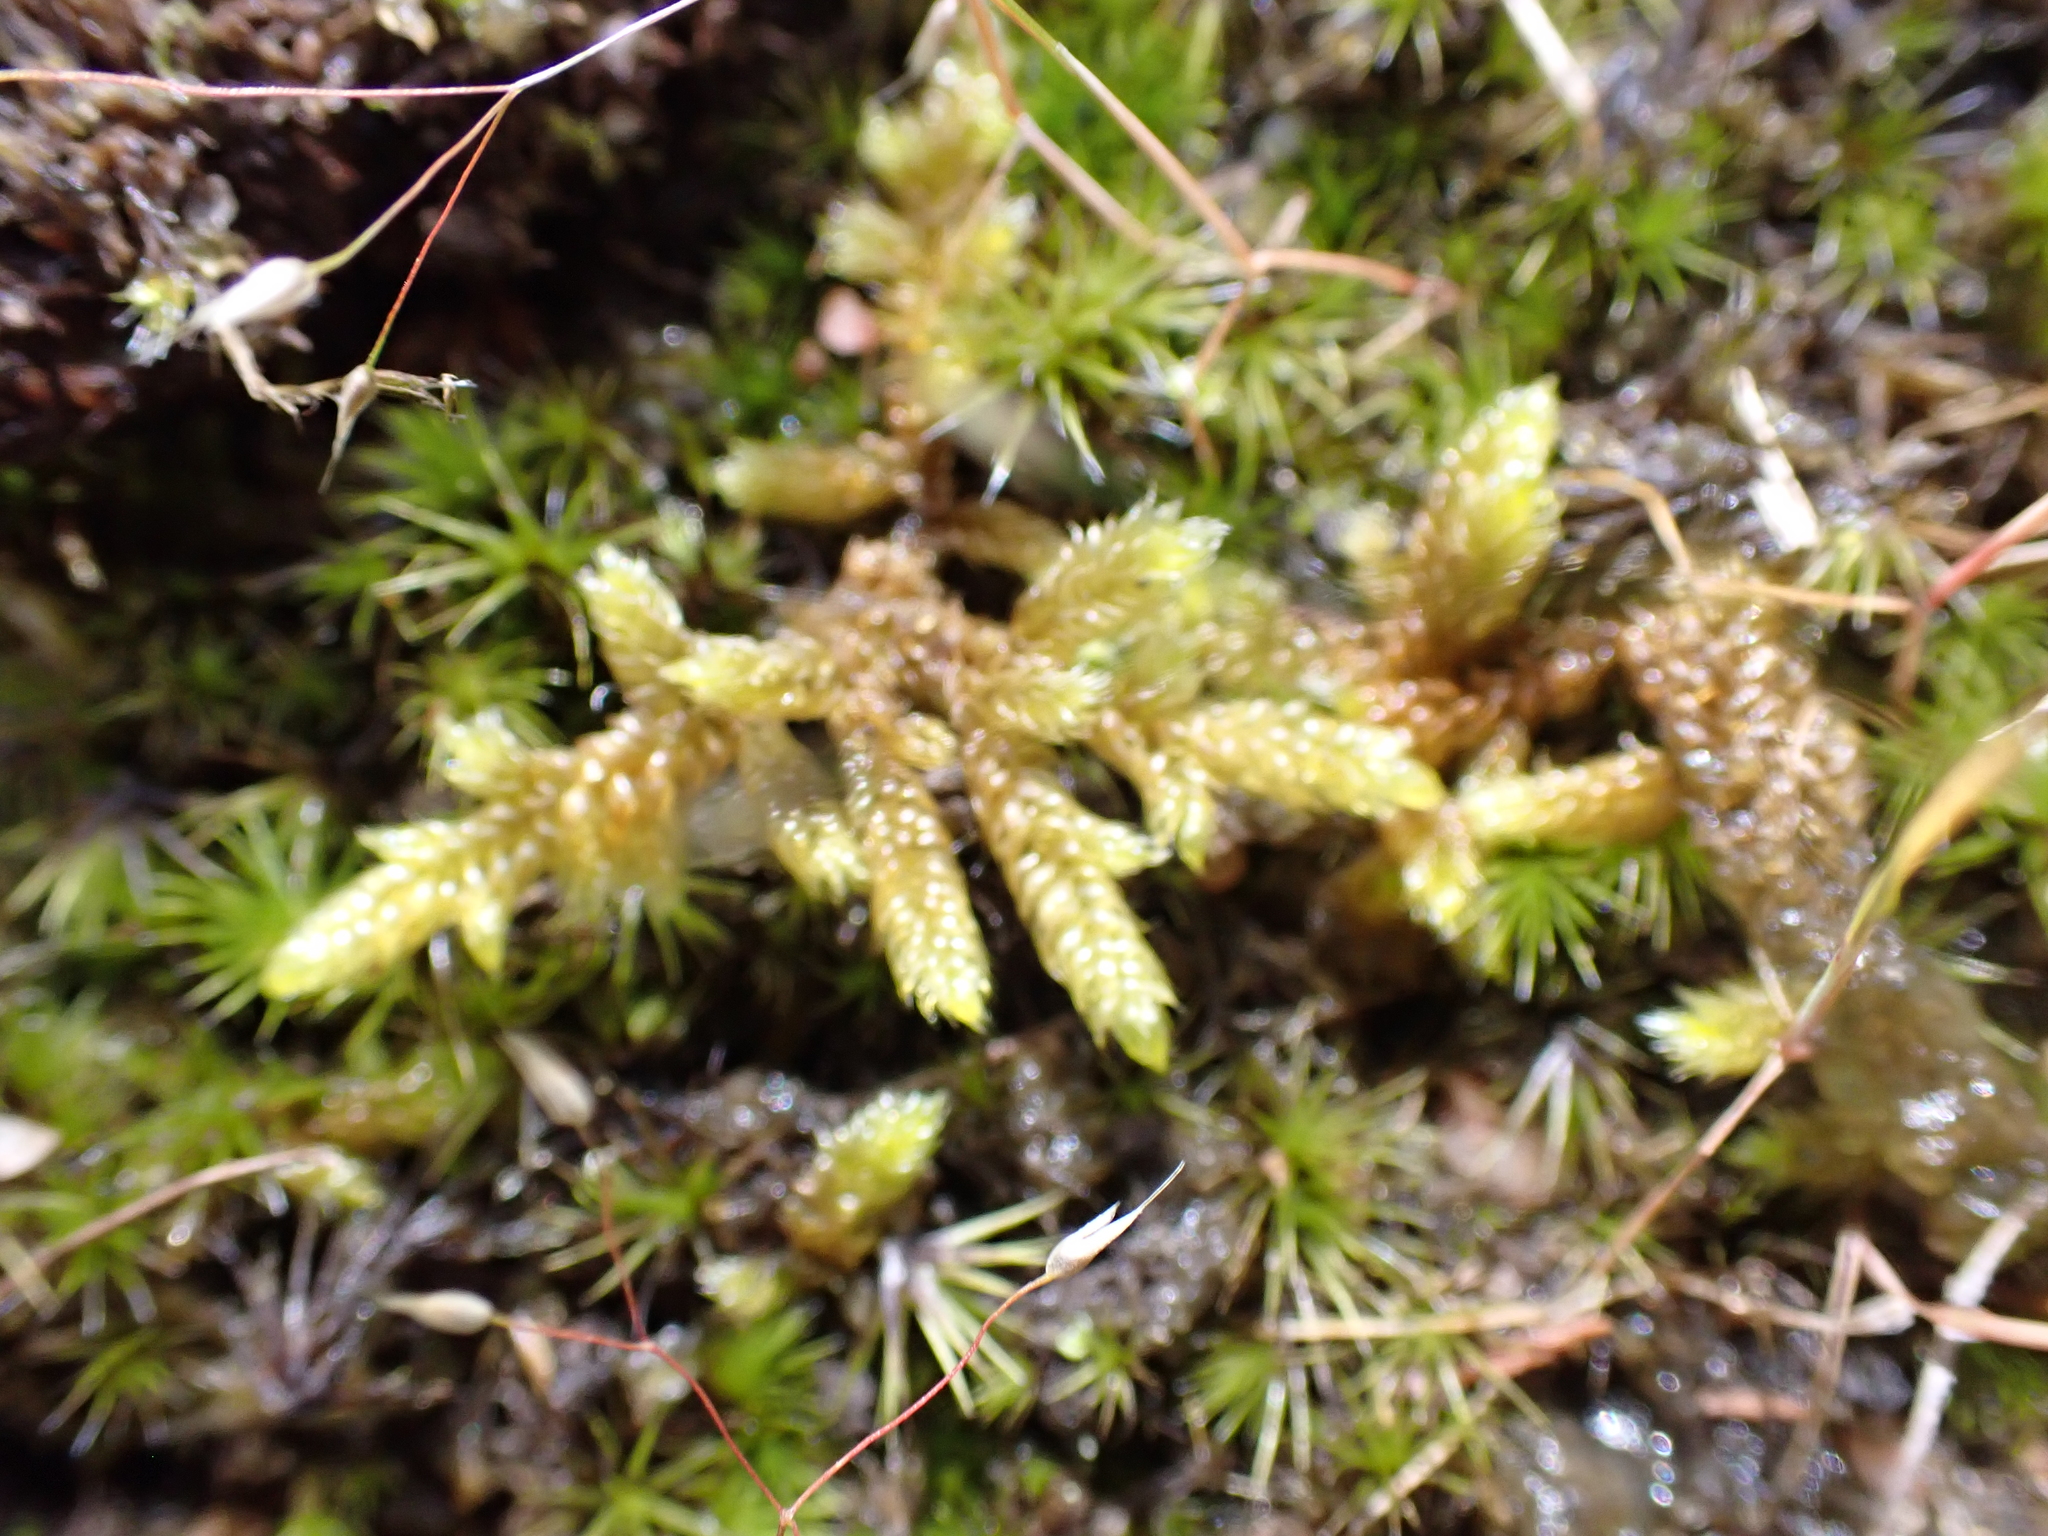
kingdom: Plantae
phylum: Bryophyta
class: Bryopsida
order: Hypnales
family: Hypnaceae
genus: Hypnum
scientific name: Hypnum cupressiforme
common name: Cypress-leaved plait-moss
